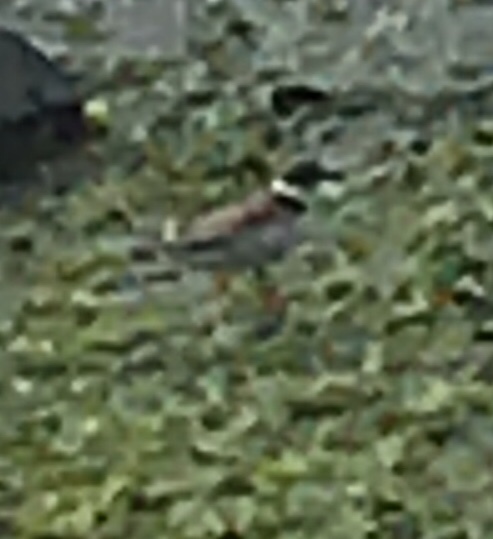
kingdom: Animalia
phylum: Chordata
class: Aves
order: Charadriiformes
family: Charadriidae
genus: Charadrius
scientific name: Charadrius semipalmatus
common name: Semipalmated plover
